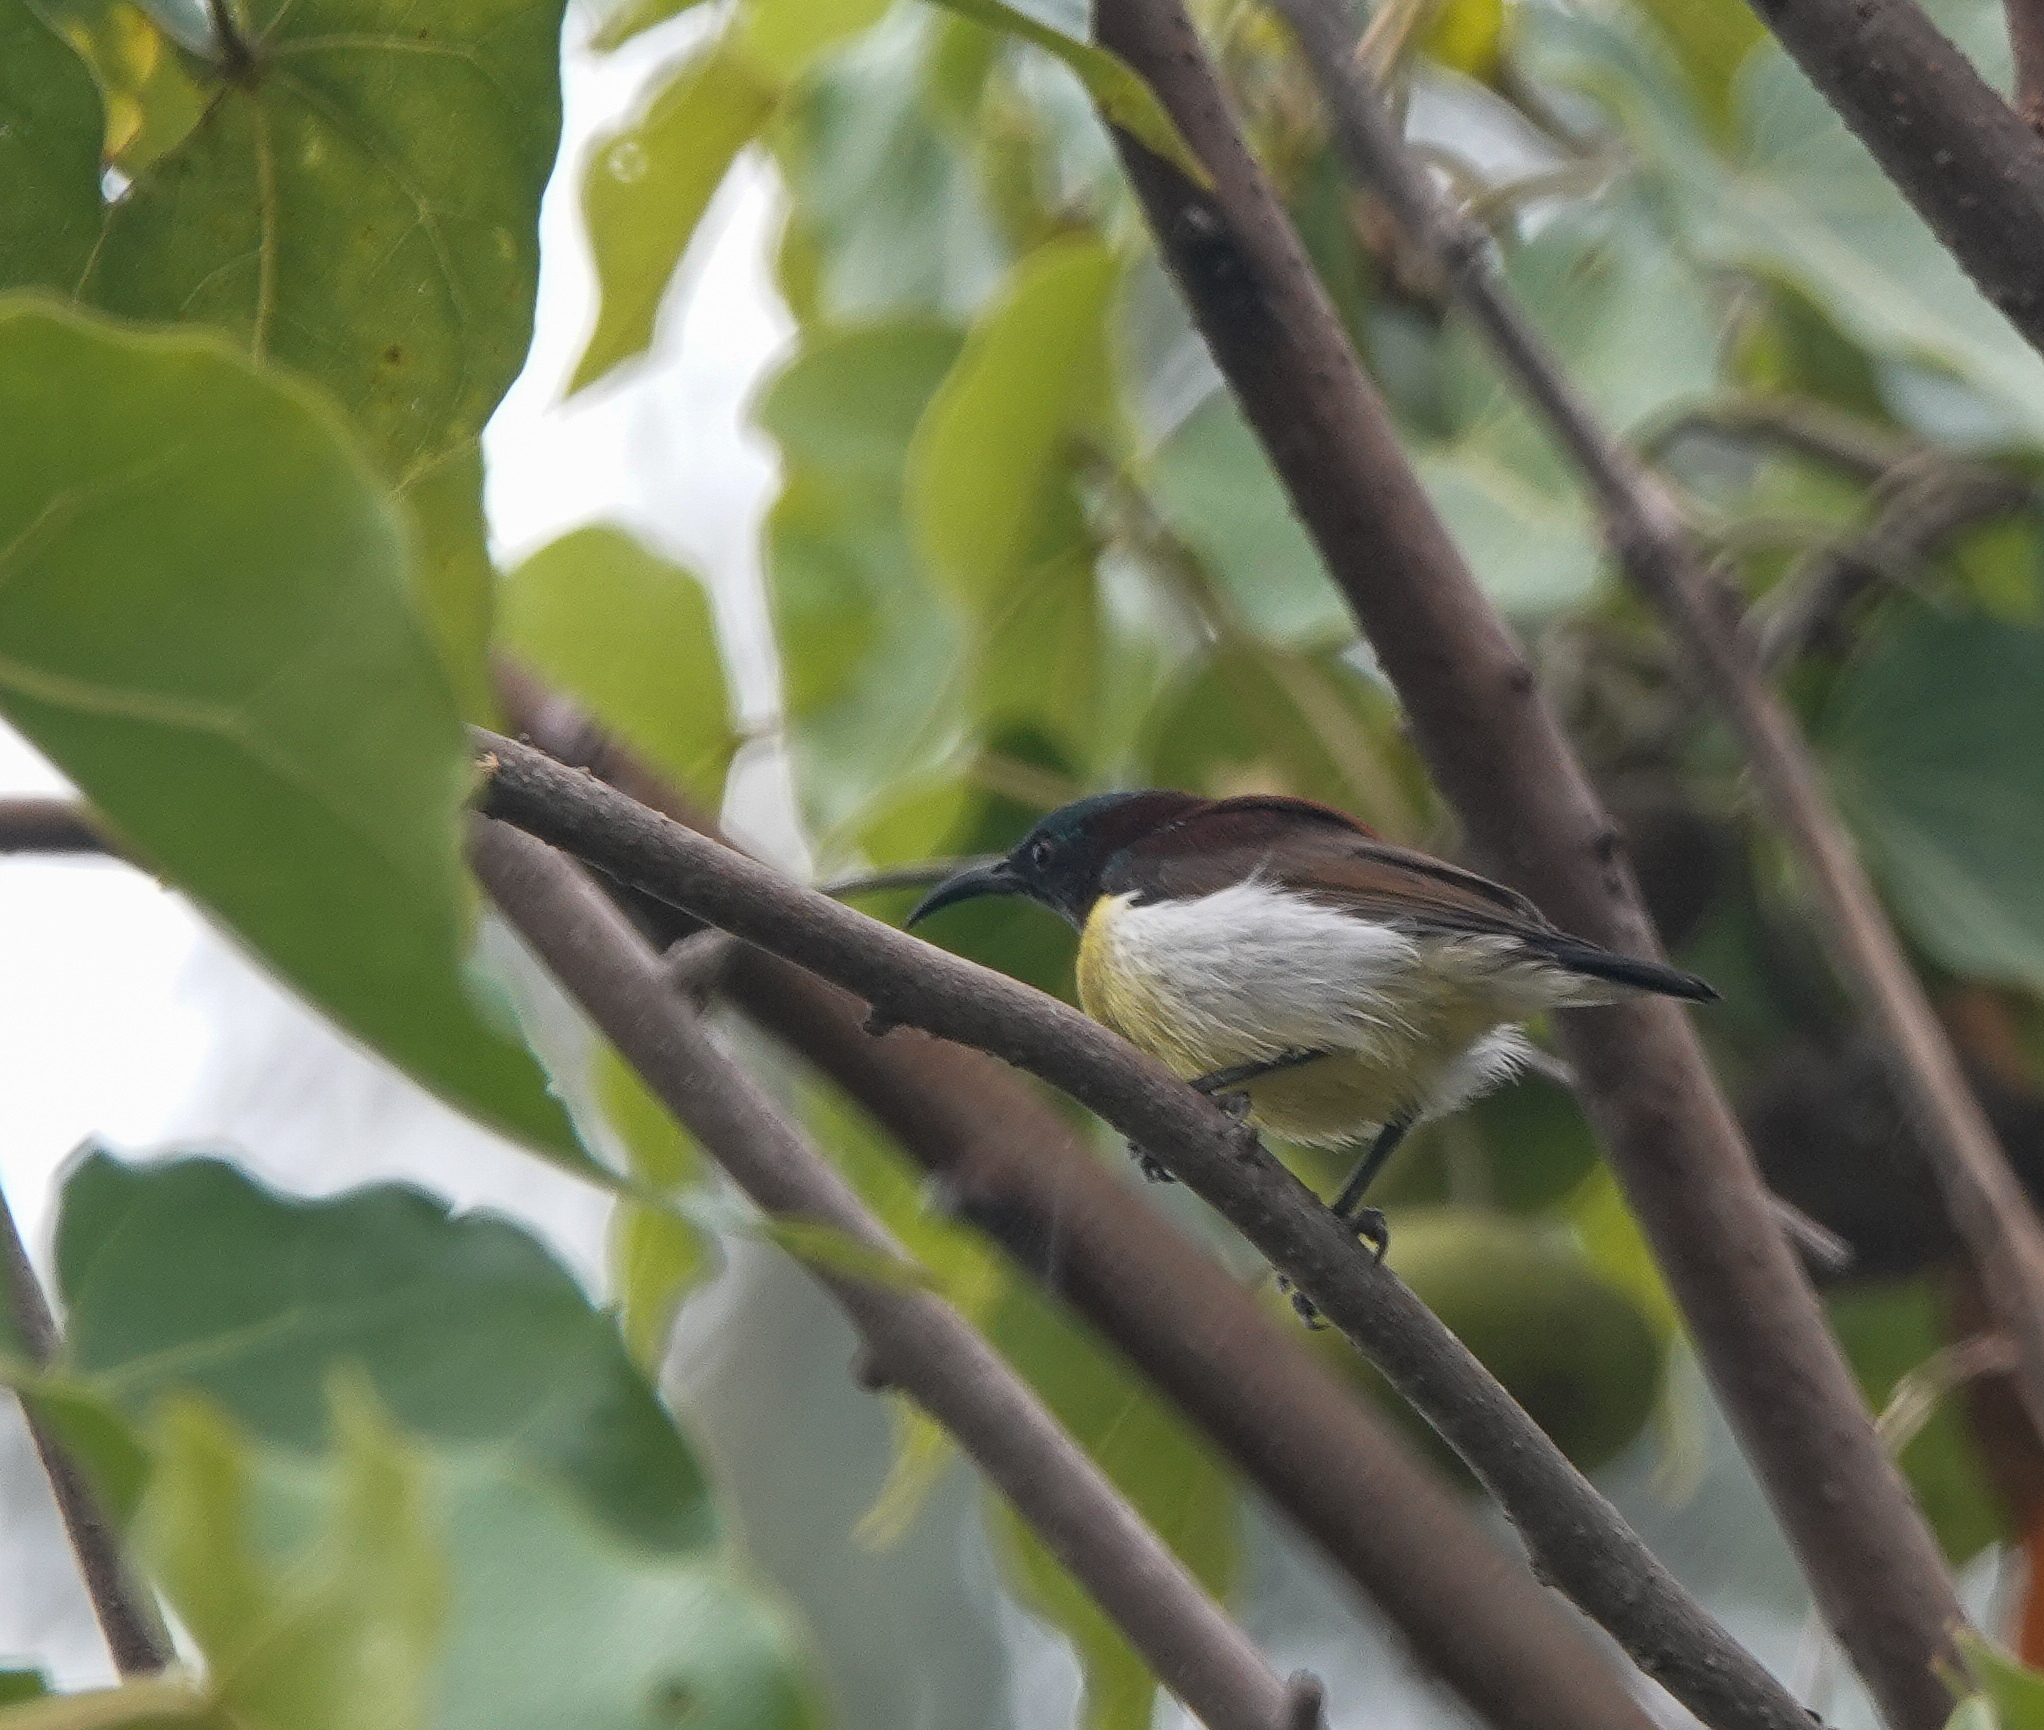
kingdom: Animalia
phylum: Chordata
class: Aves
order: Passeriformes
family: Nectariniidae
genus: Cinnyris
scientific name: Cinnyris asiaticus
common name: Purple sunbird
